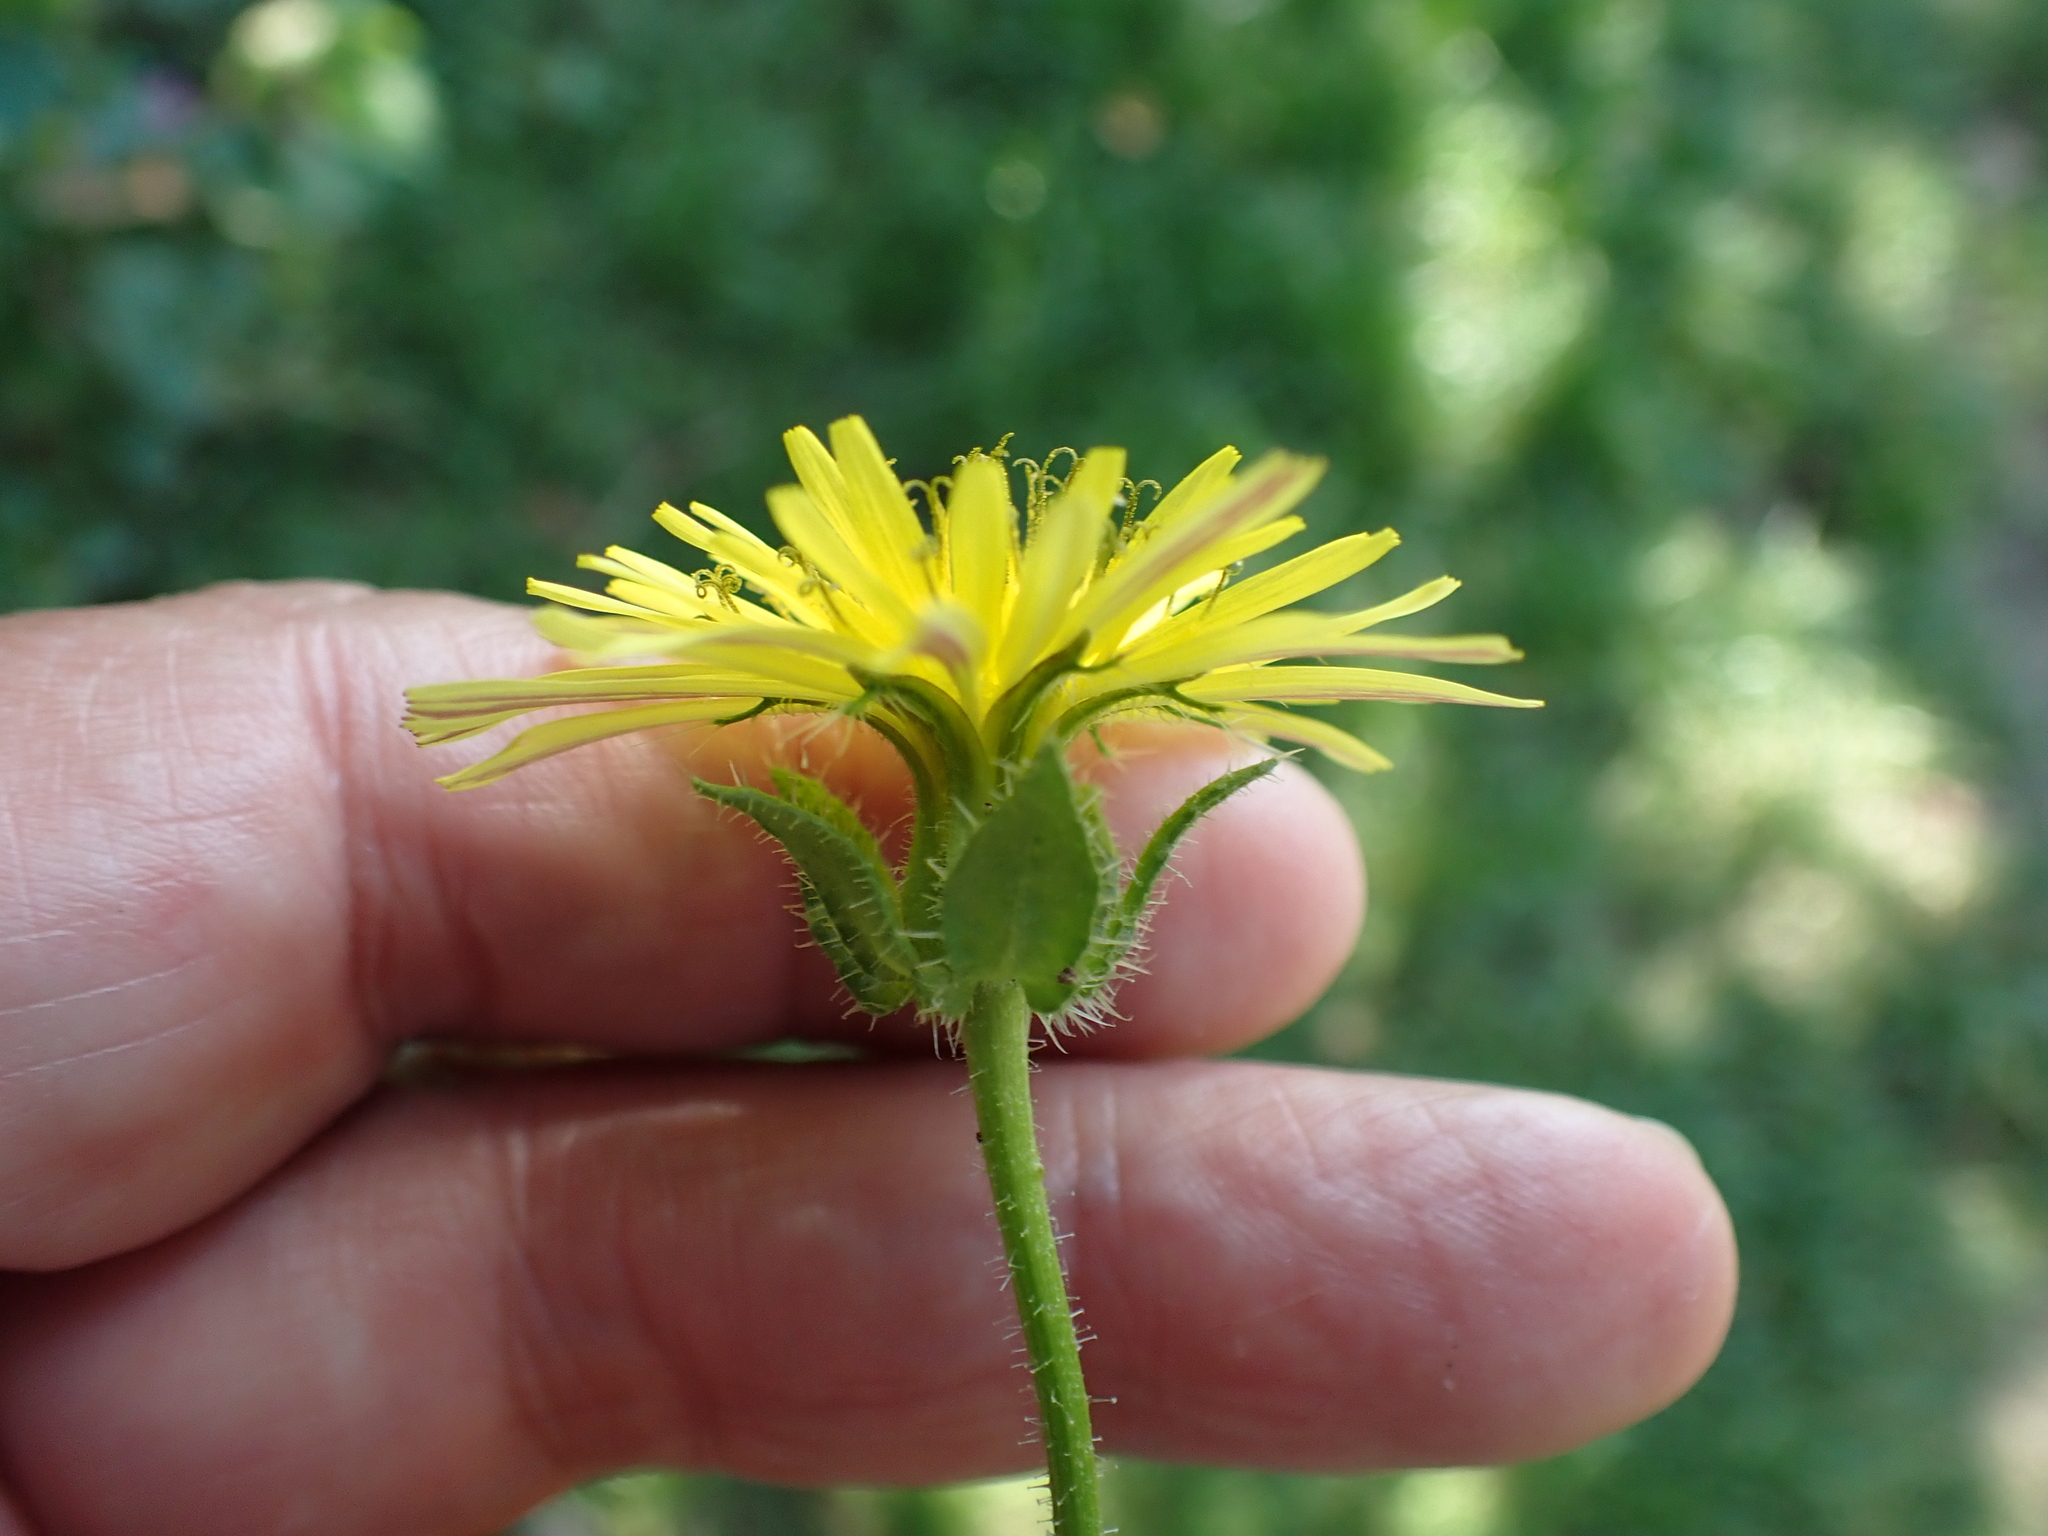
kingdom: Plantae
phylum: Tracheophyta
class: Magnoliopsida
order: Asterales
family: Asteraceae
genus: Helminthotheca
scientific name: Helminthotheca echioides
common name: Ox-tongue
